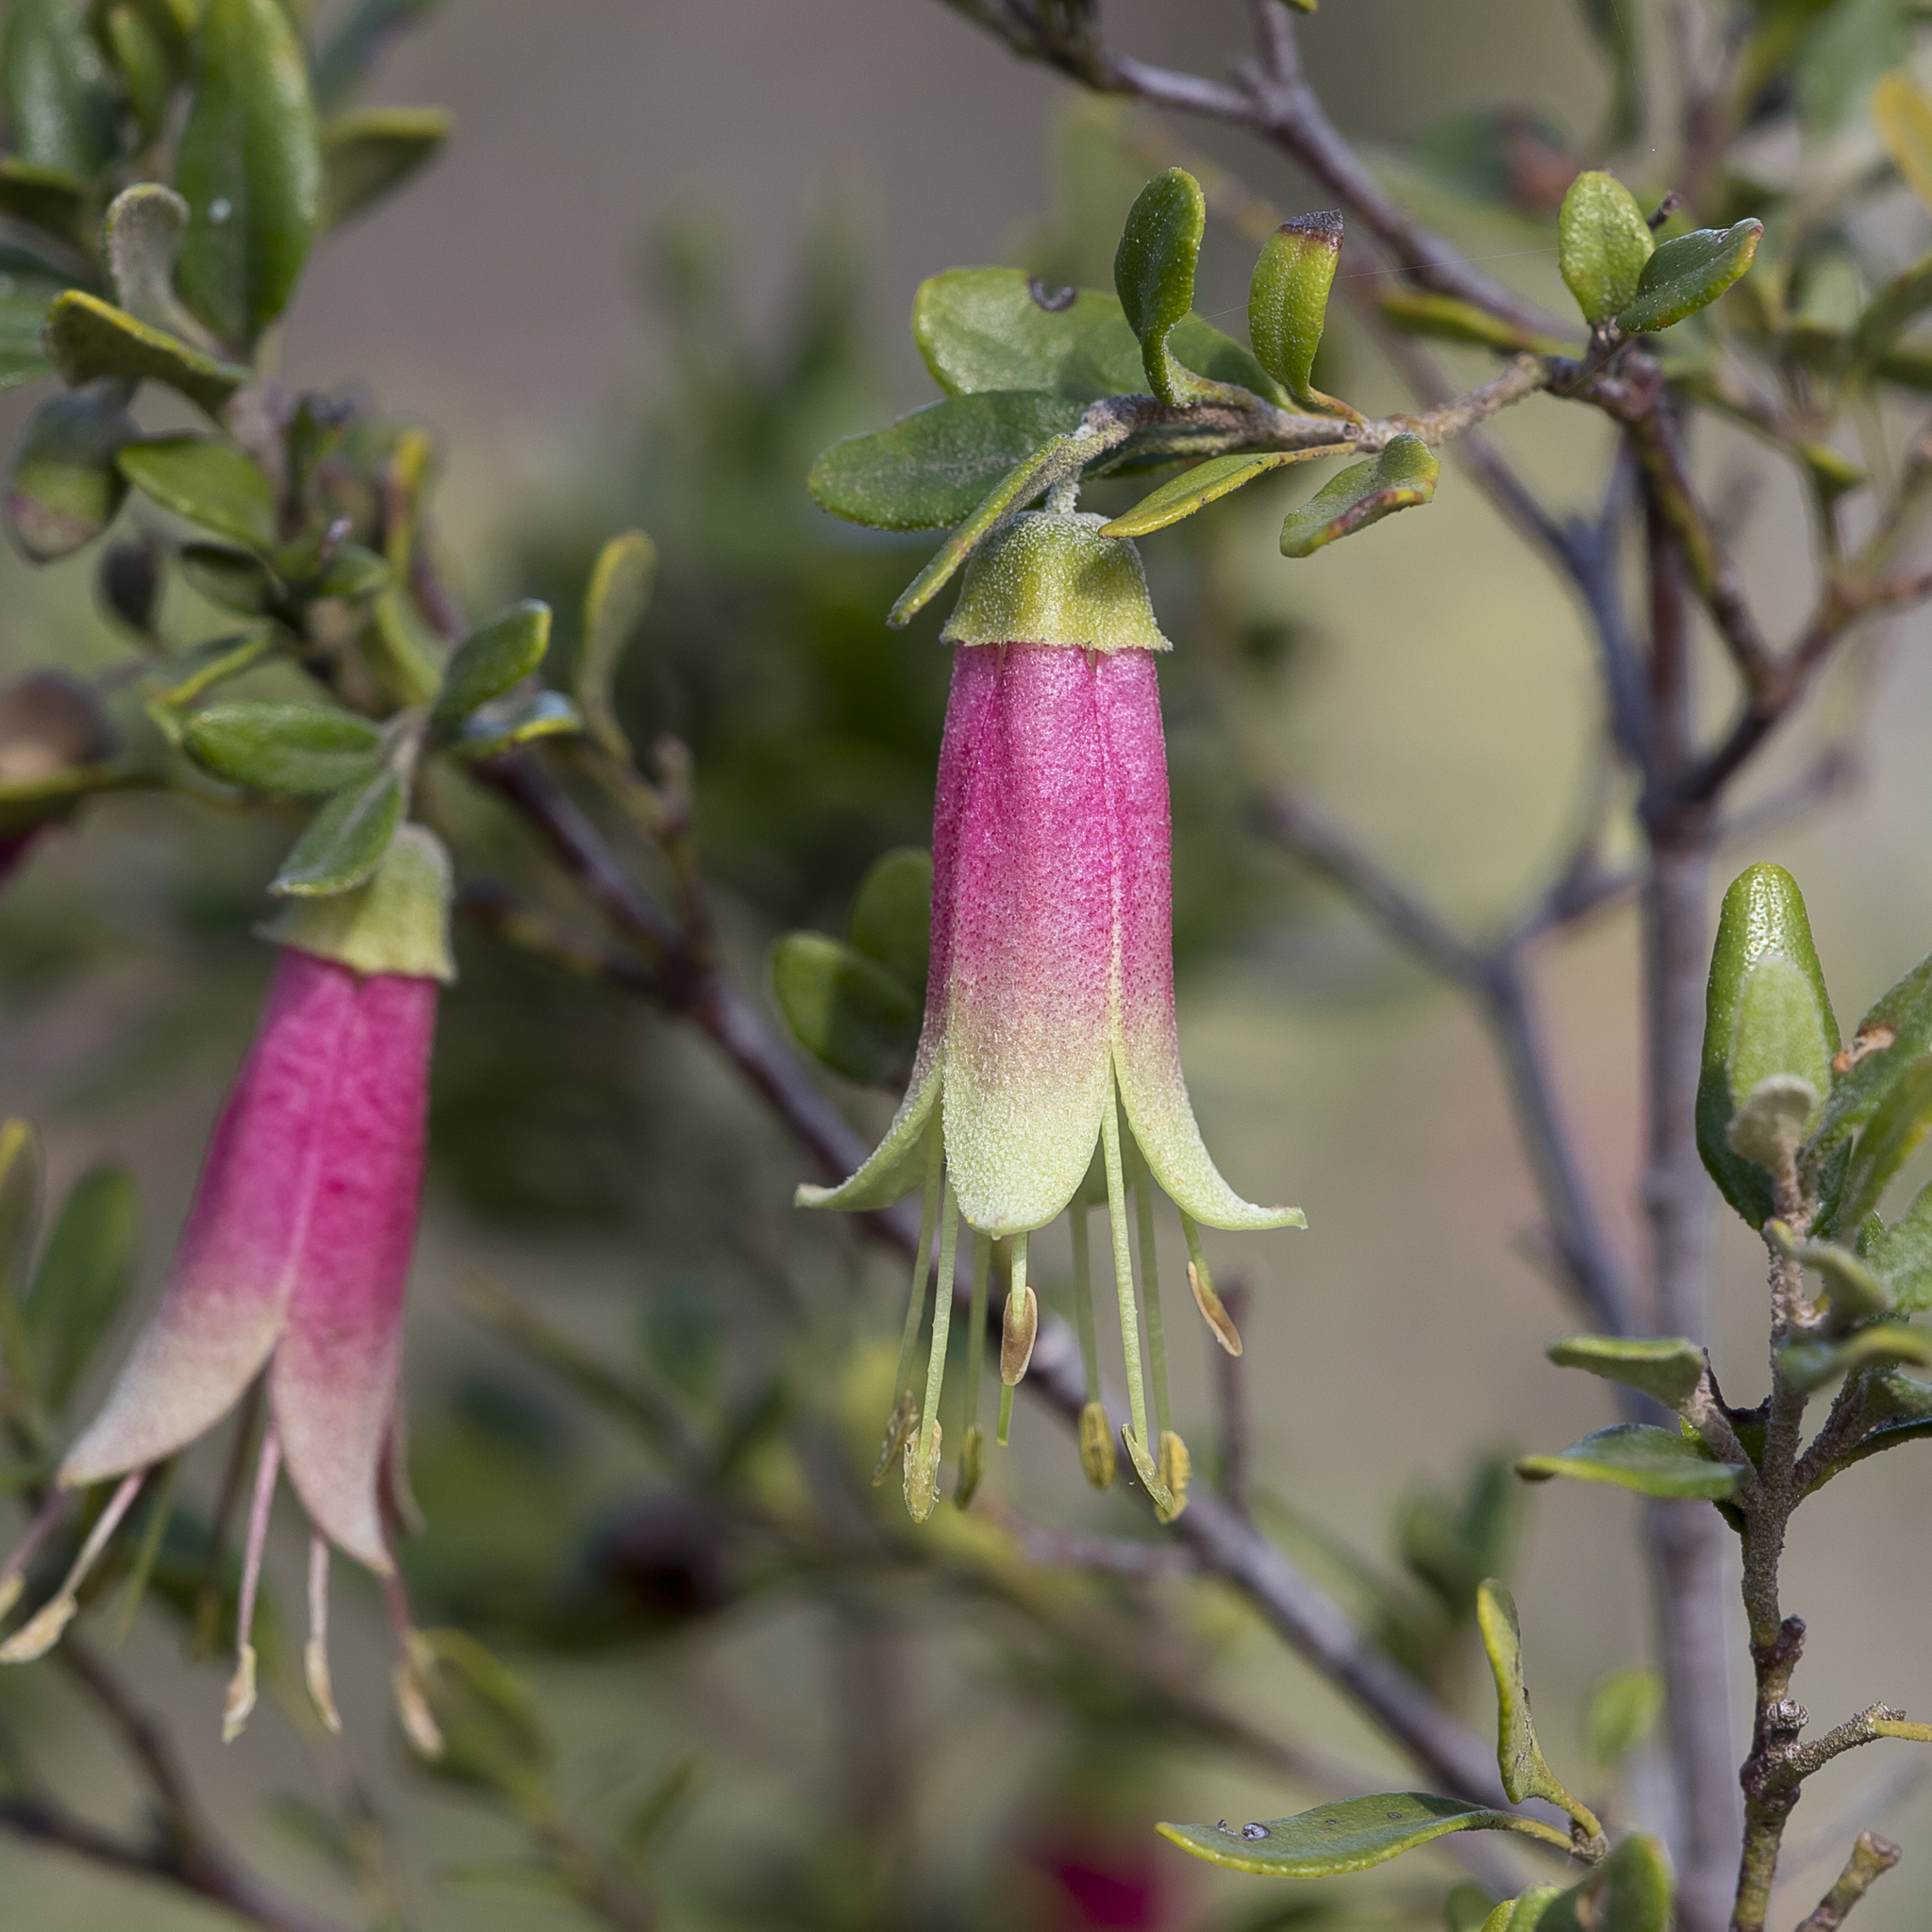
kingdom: Plantae
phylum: Tracheophyta
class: Magnoliopsida
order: Sapindales
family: Rutaceae
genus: Correa
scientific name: Correa glabra
